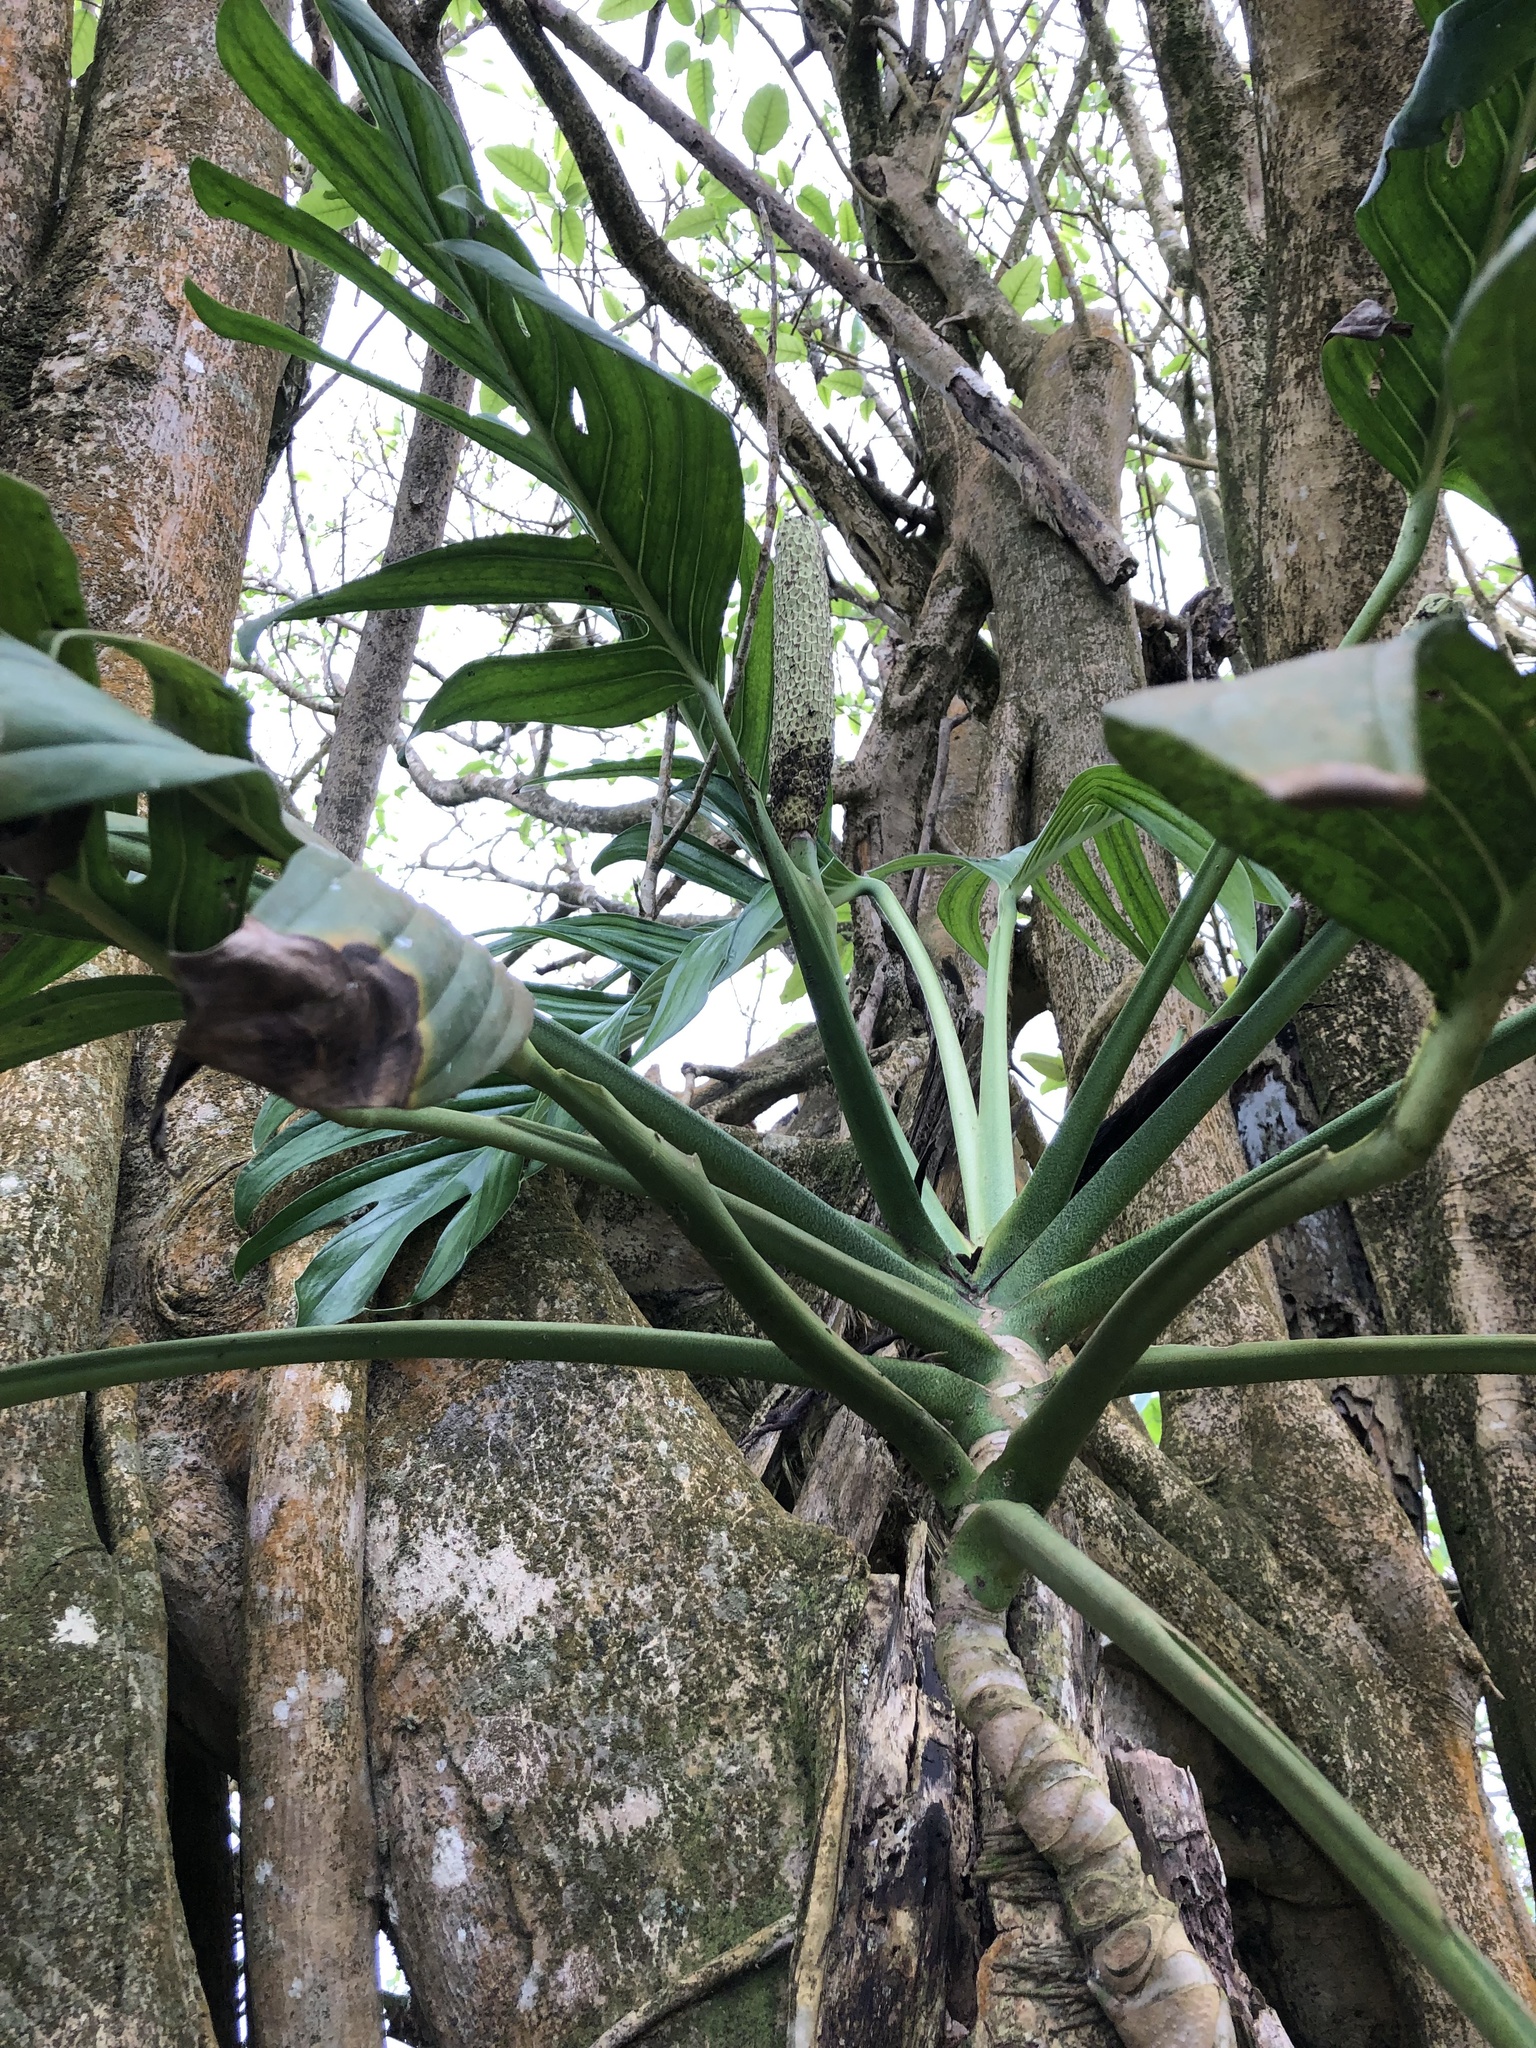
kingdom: Plantae
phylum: Tracheophyta
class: Liliopsida
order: Alismatales
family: Araceae
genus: Monstera
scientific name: Monstera pinnatipartita
